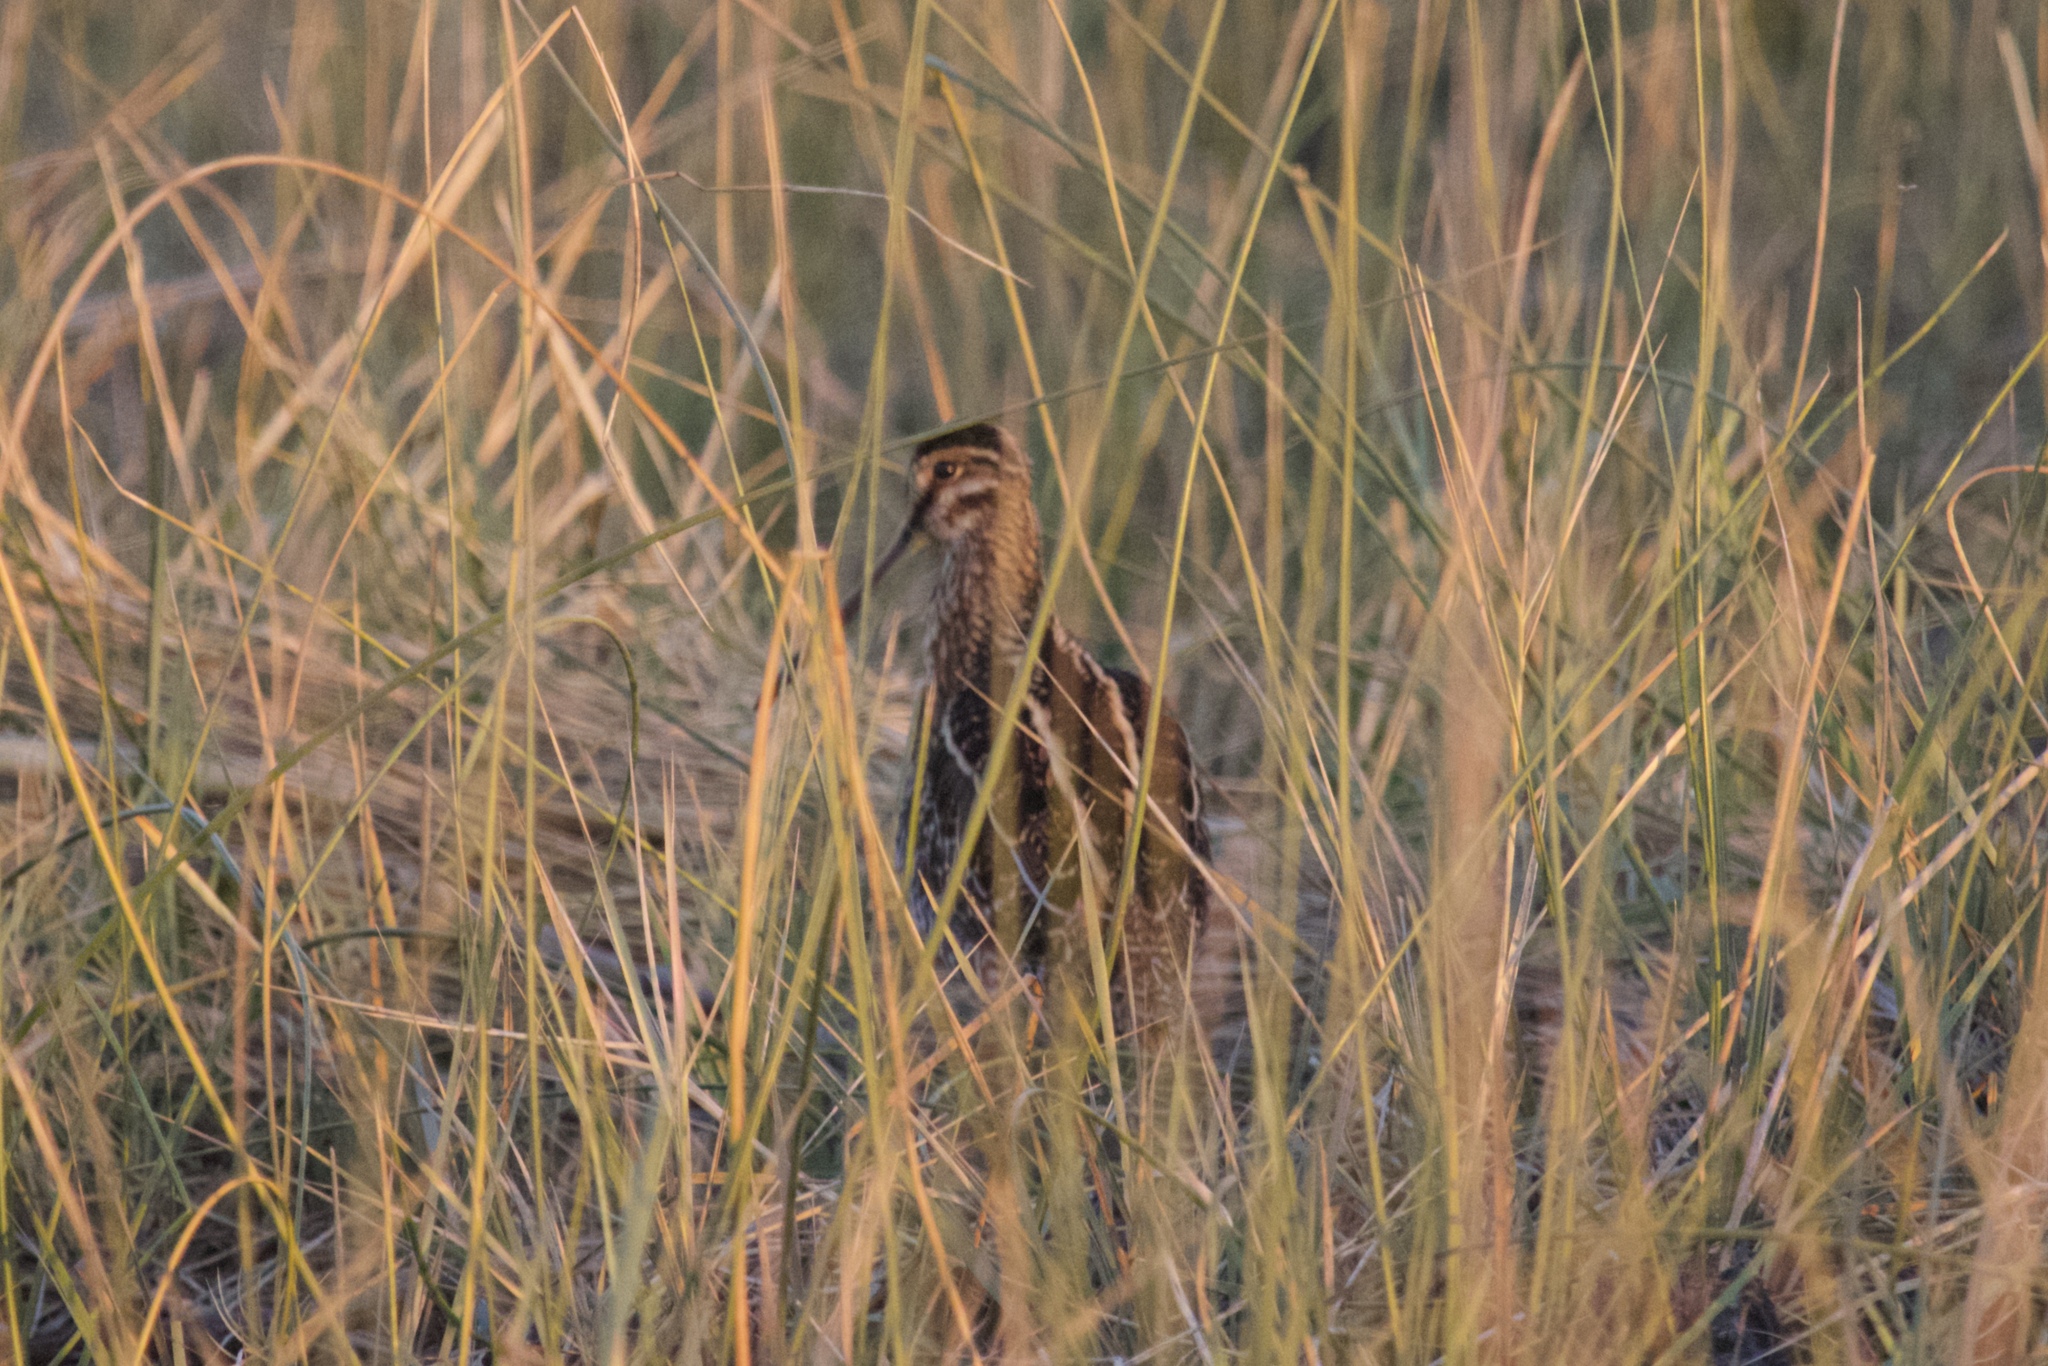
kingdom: Animalia
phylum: Chordata
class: Aves
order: Charadriiformes
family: Scolopacidae
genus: Gallinago
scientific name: Gallinago delicata
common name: Wilson's snipe
